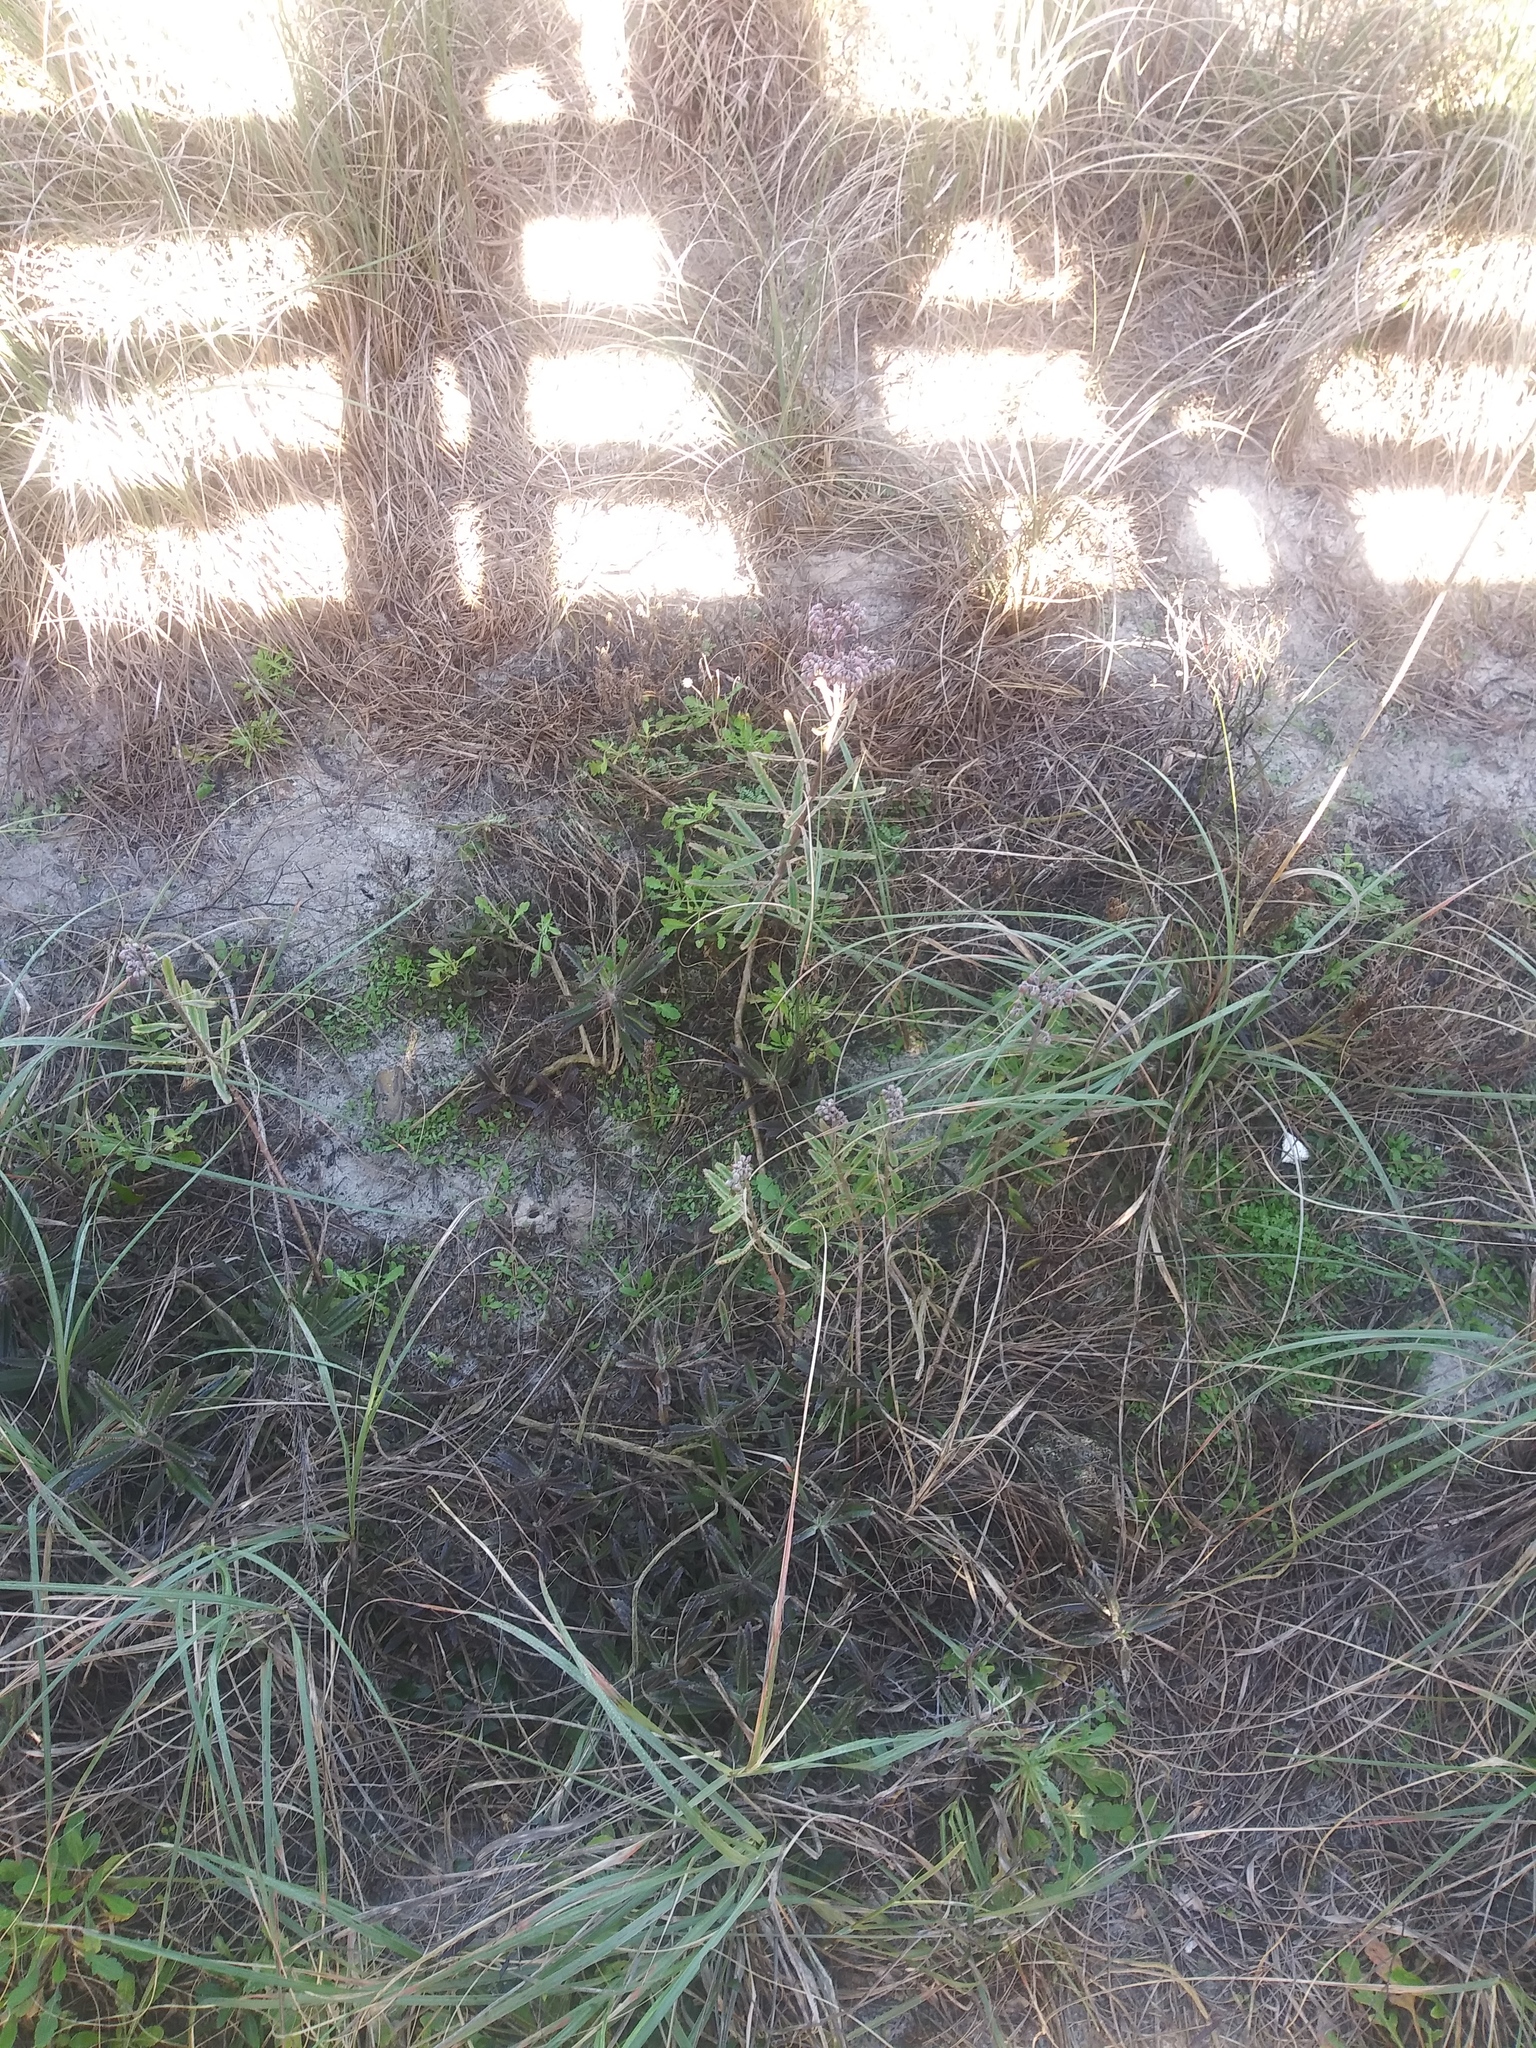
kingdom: Plantae
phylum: Tracheophyta
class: Magnoliopsida
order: Saxifragales
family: Crassulaceae
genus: Kalanchoe
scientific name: Kalanchoe houghtonii
